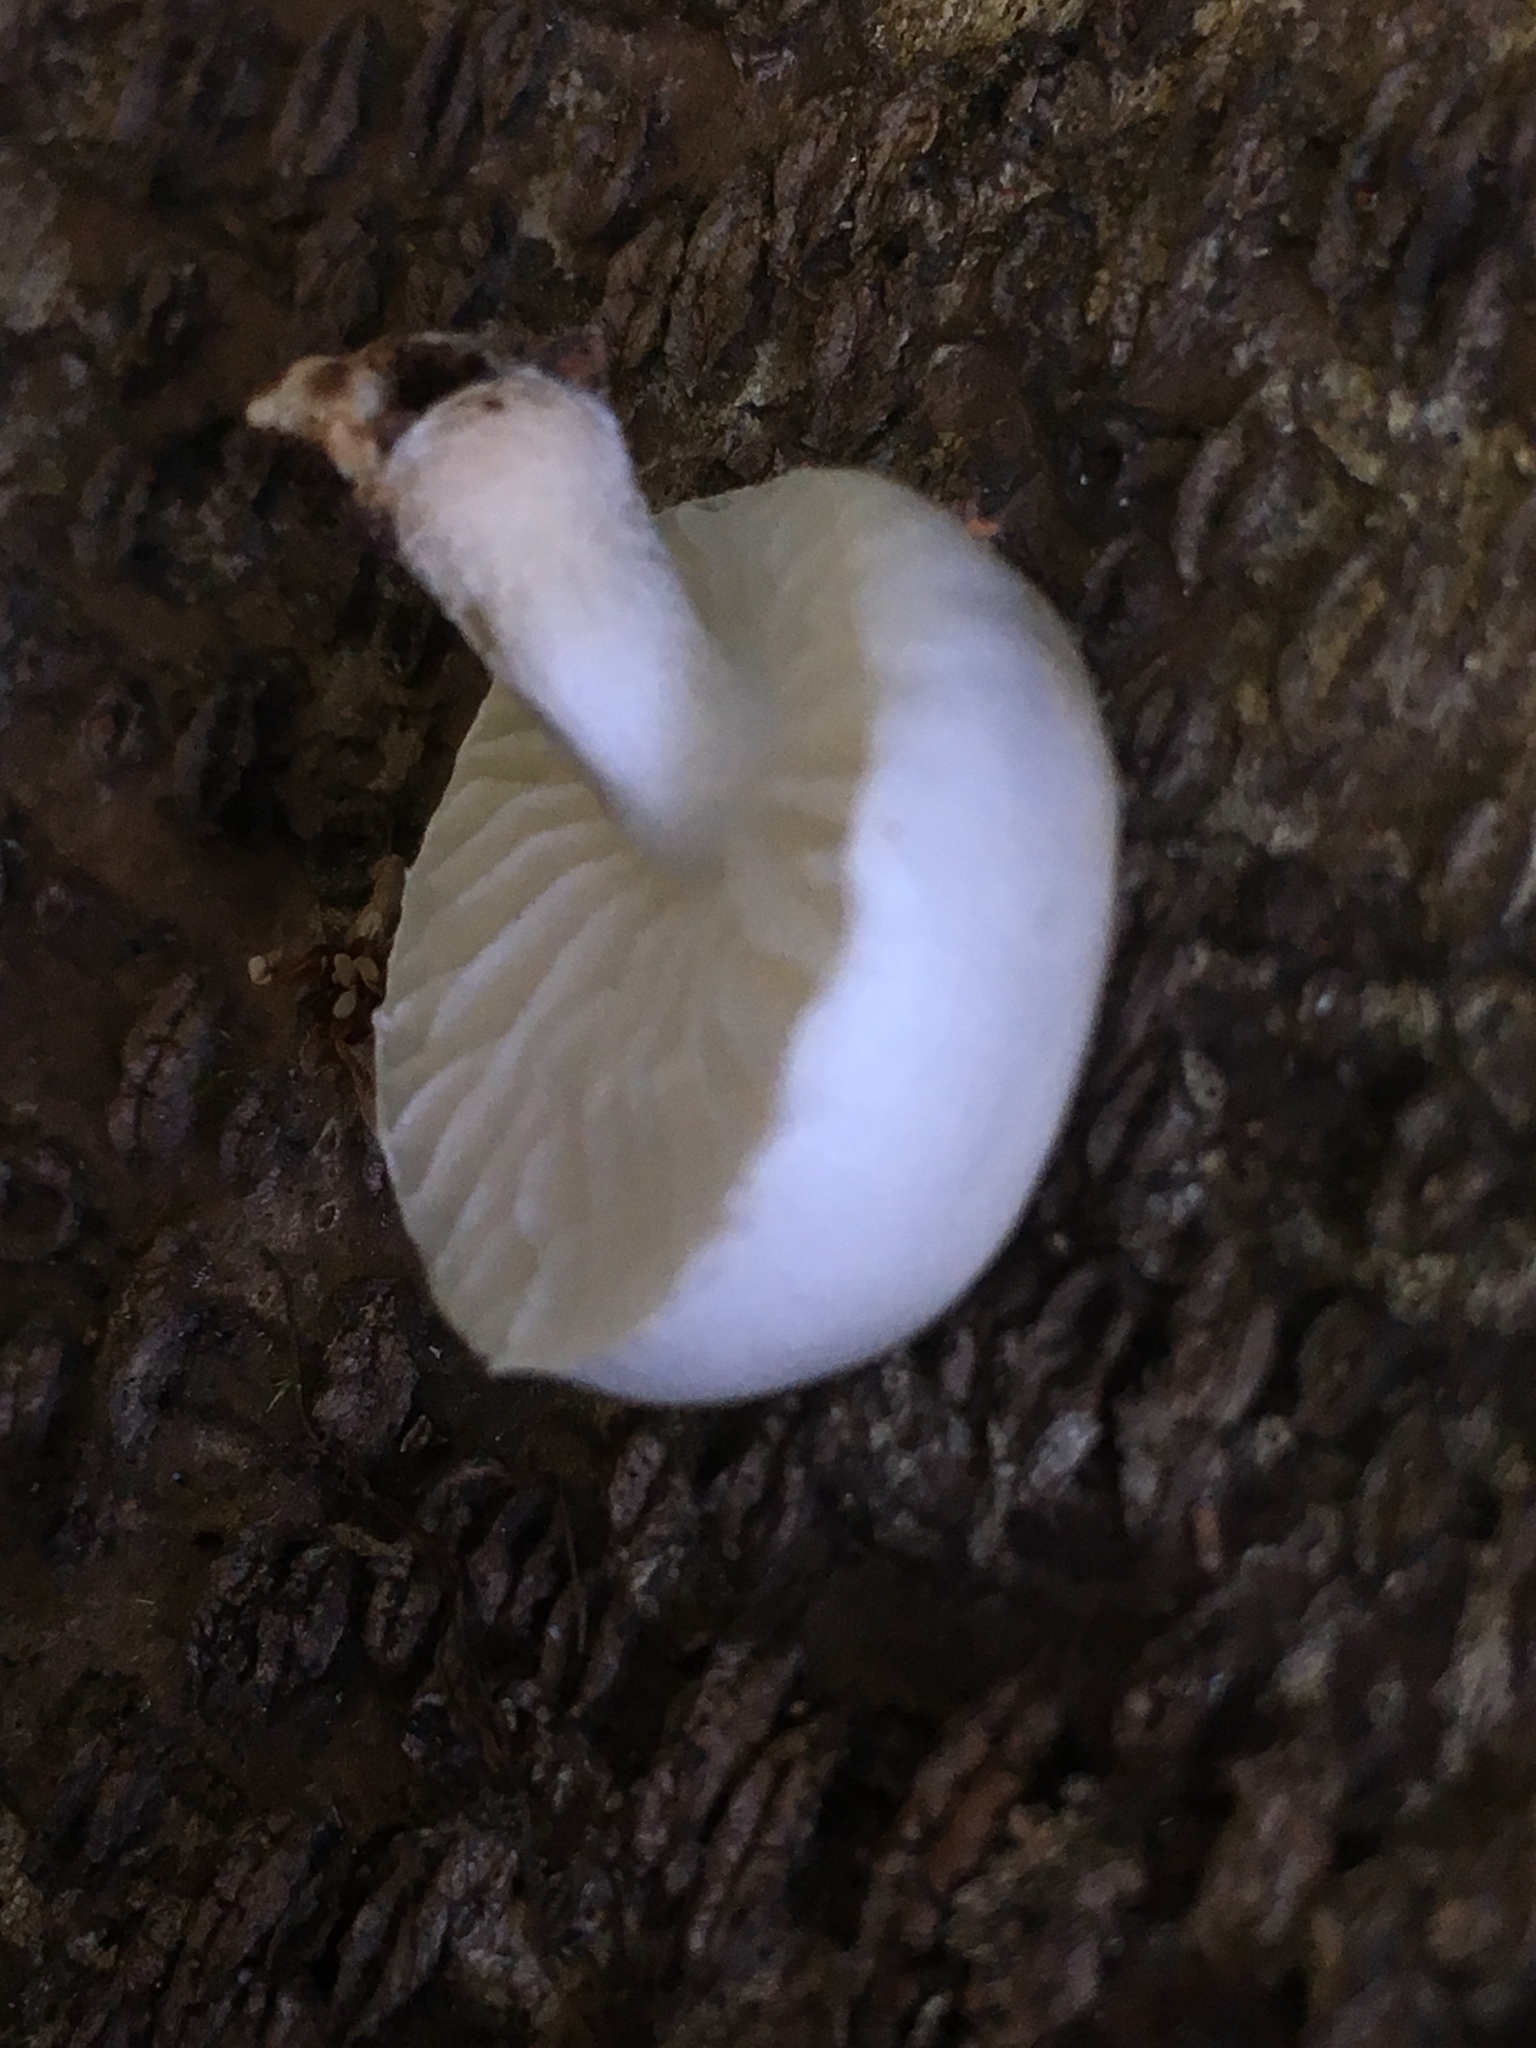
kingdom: Fungi
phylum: Basidiomycota
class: Agaricomycetes
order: Agaricales
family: Physalacriaceae
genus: Oudemansiella
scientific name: Oudemansiella australis
